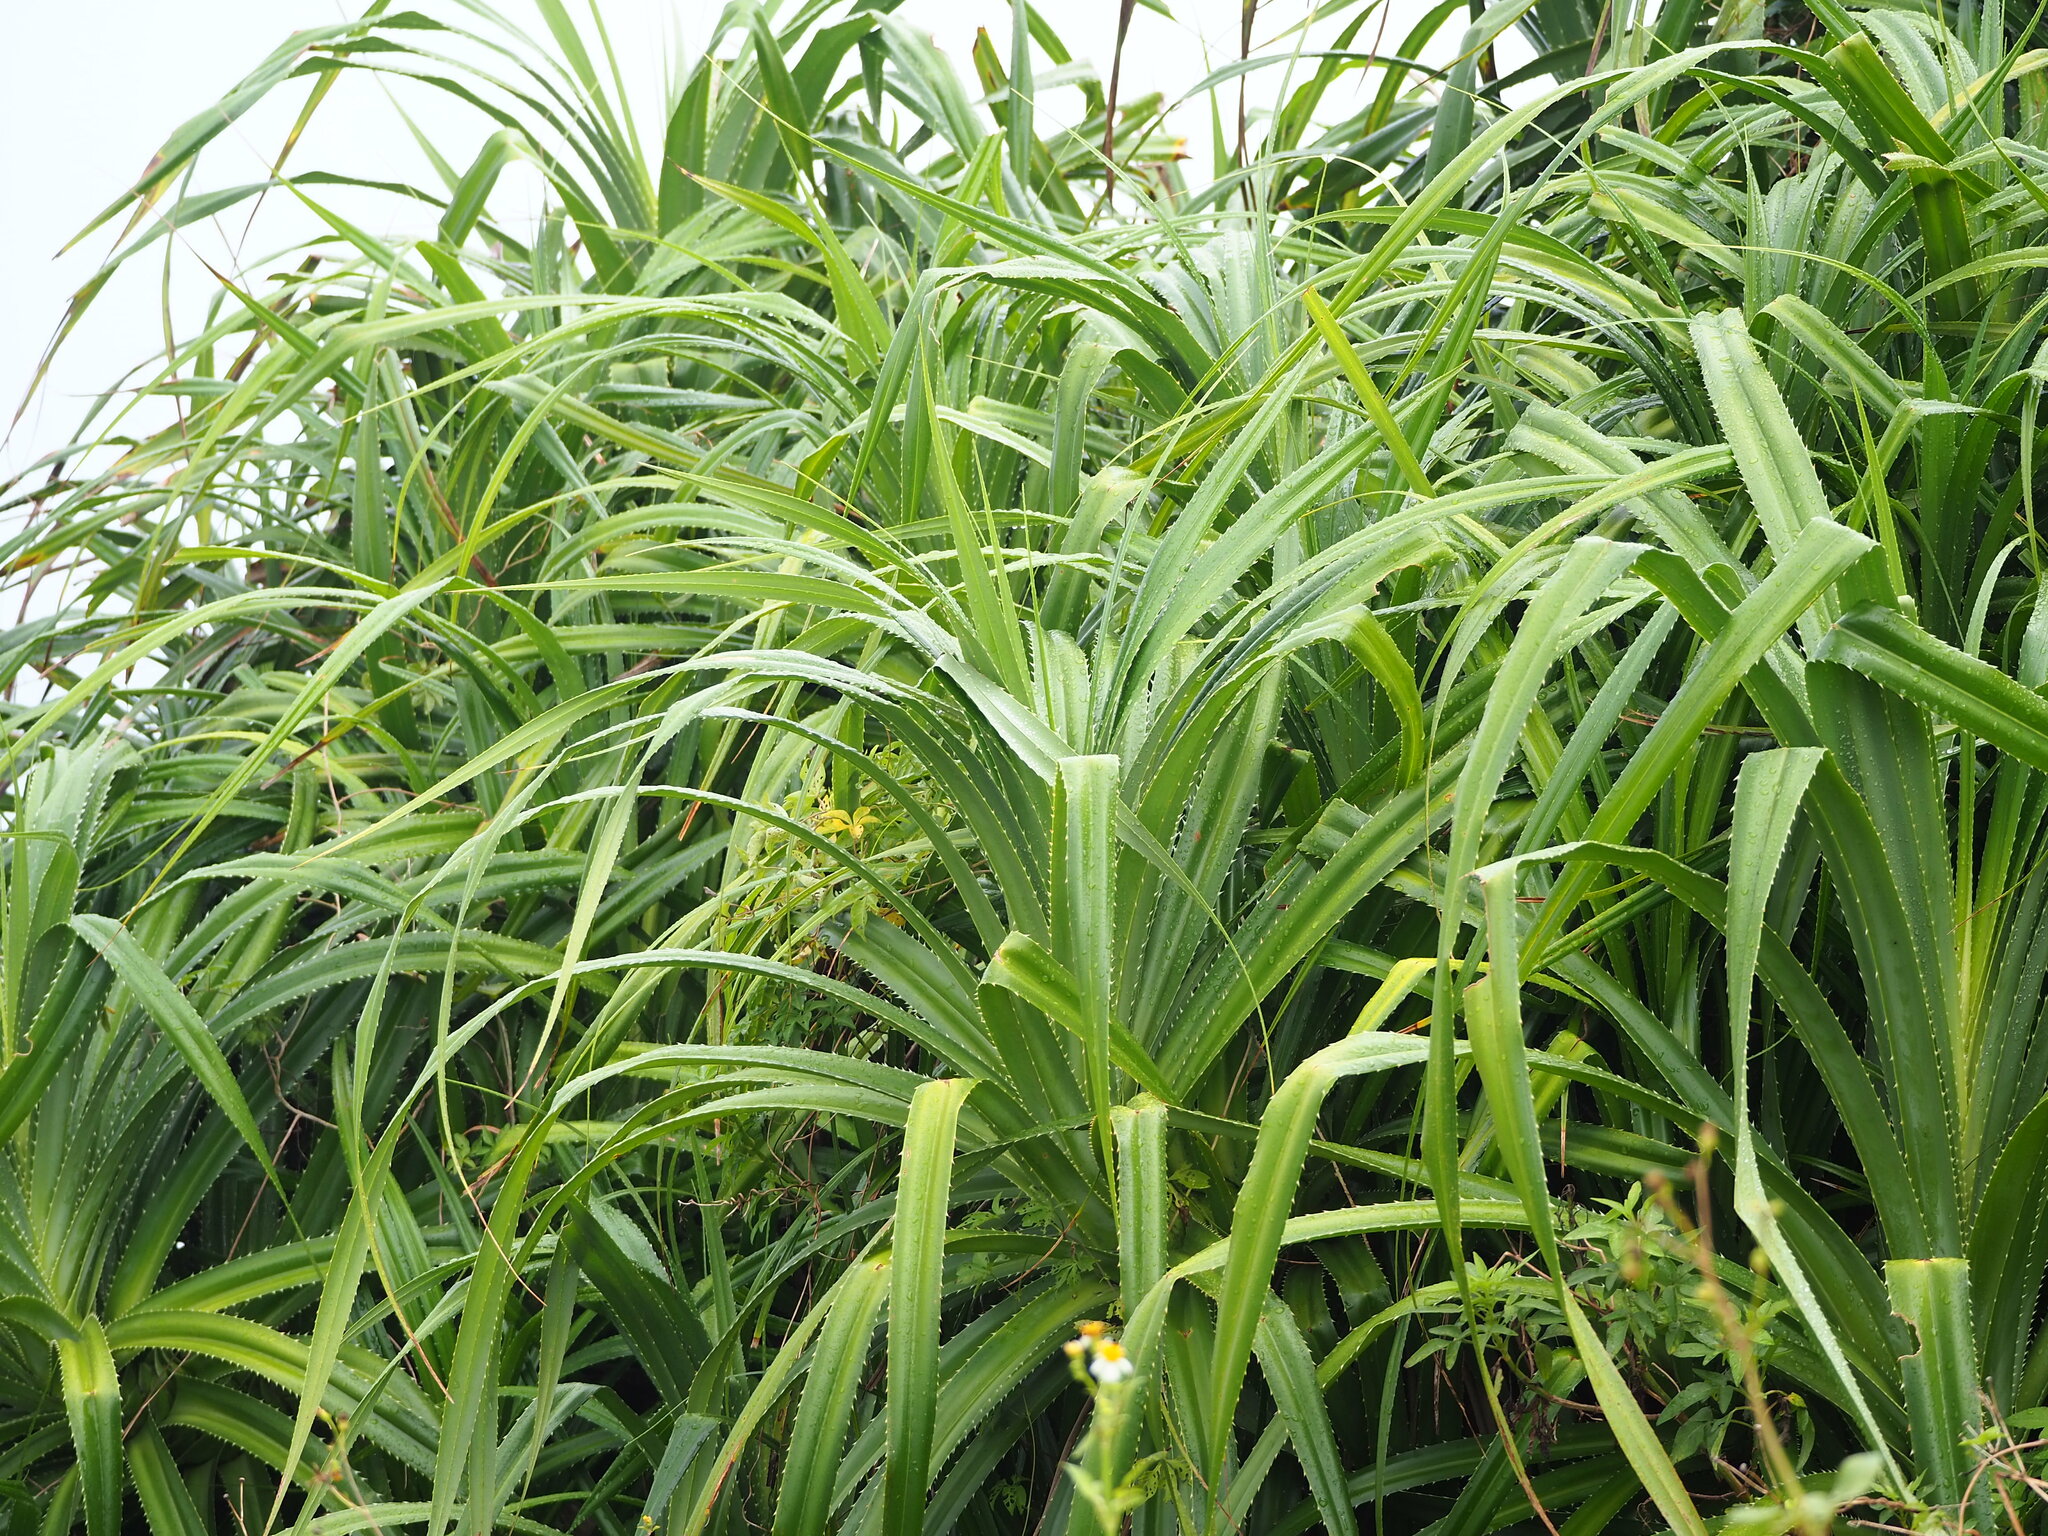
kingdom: Plantae
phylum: Tracheophyta
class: Liliopsida
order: Pandanales
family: Pandanaceae
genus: Pandanus
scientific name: Pandanus odorifer
